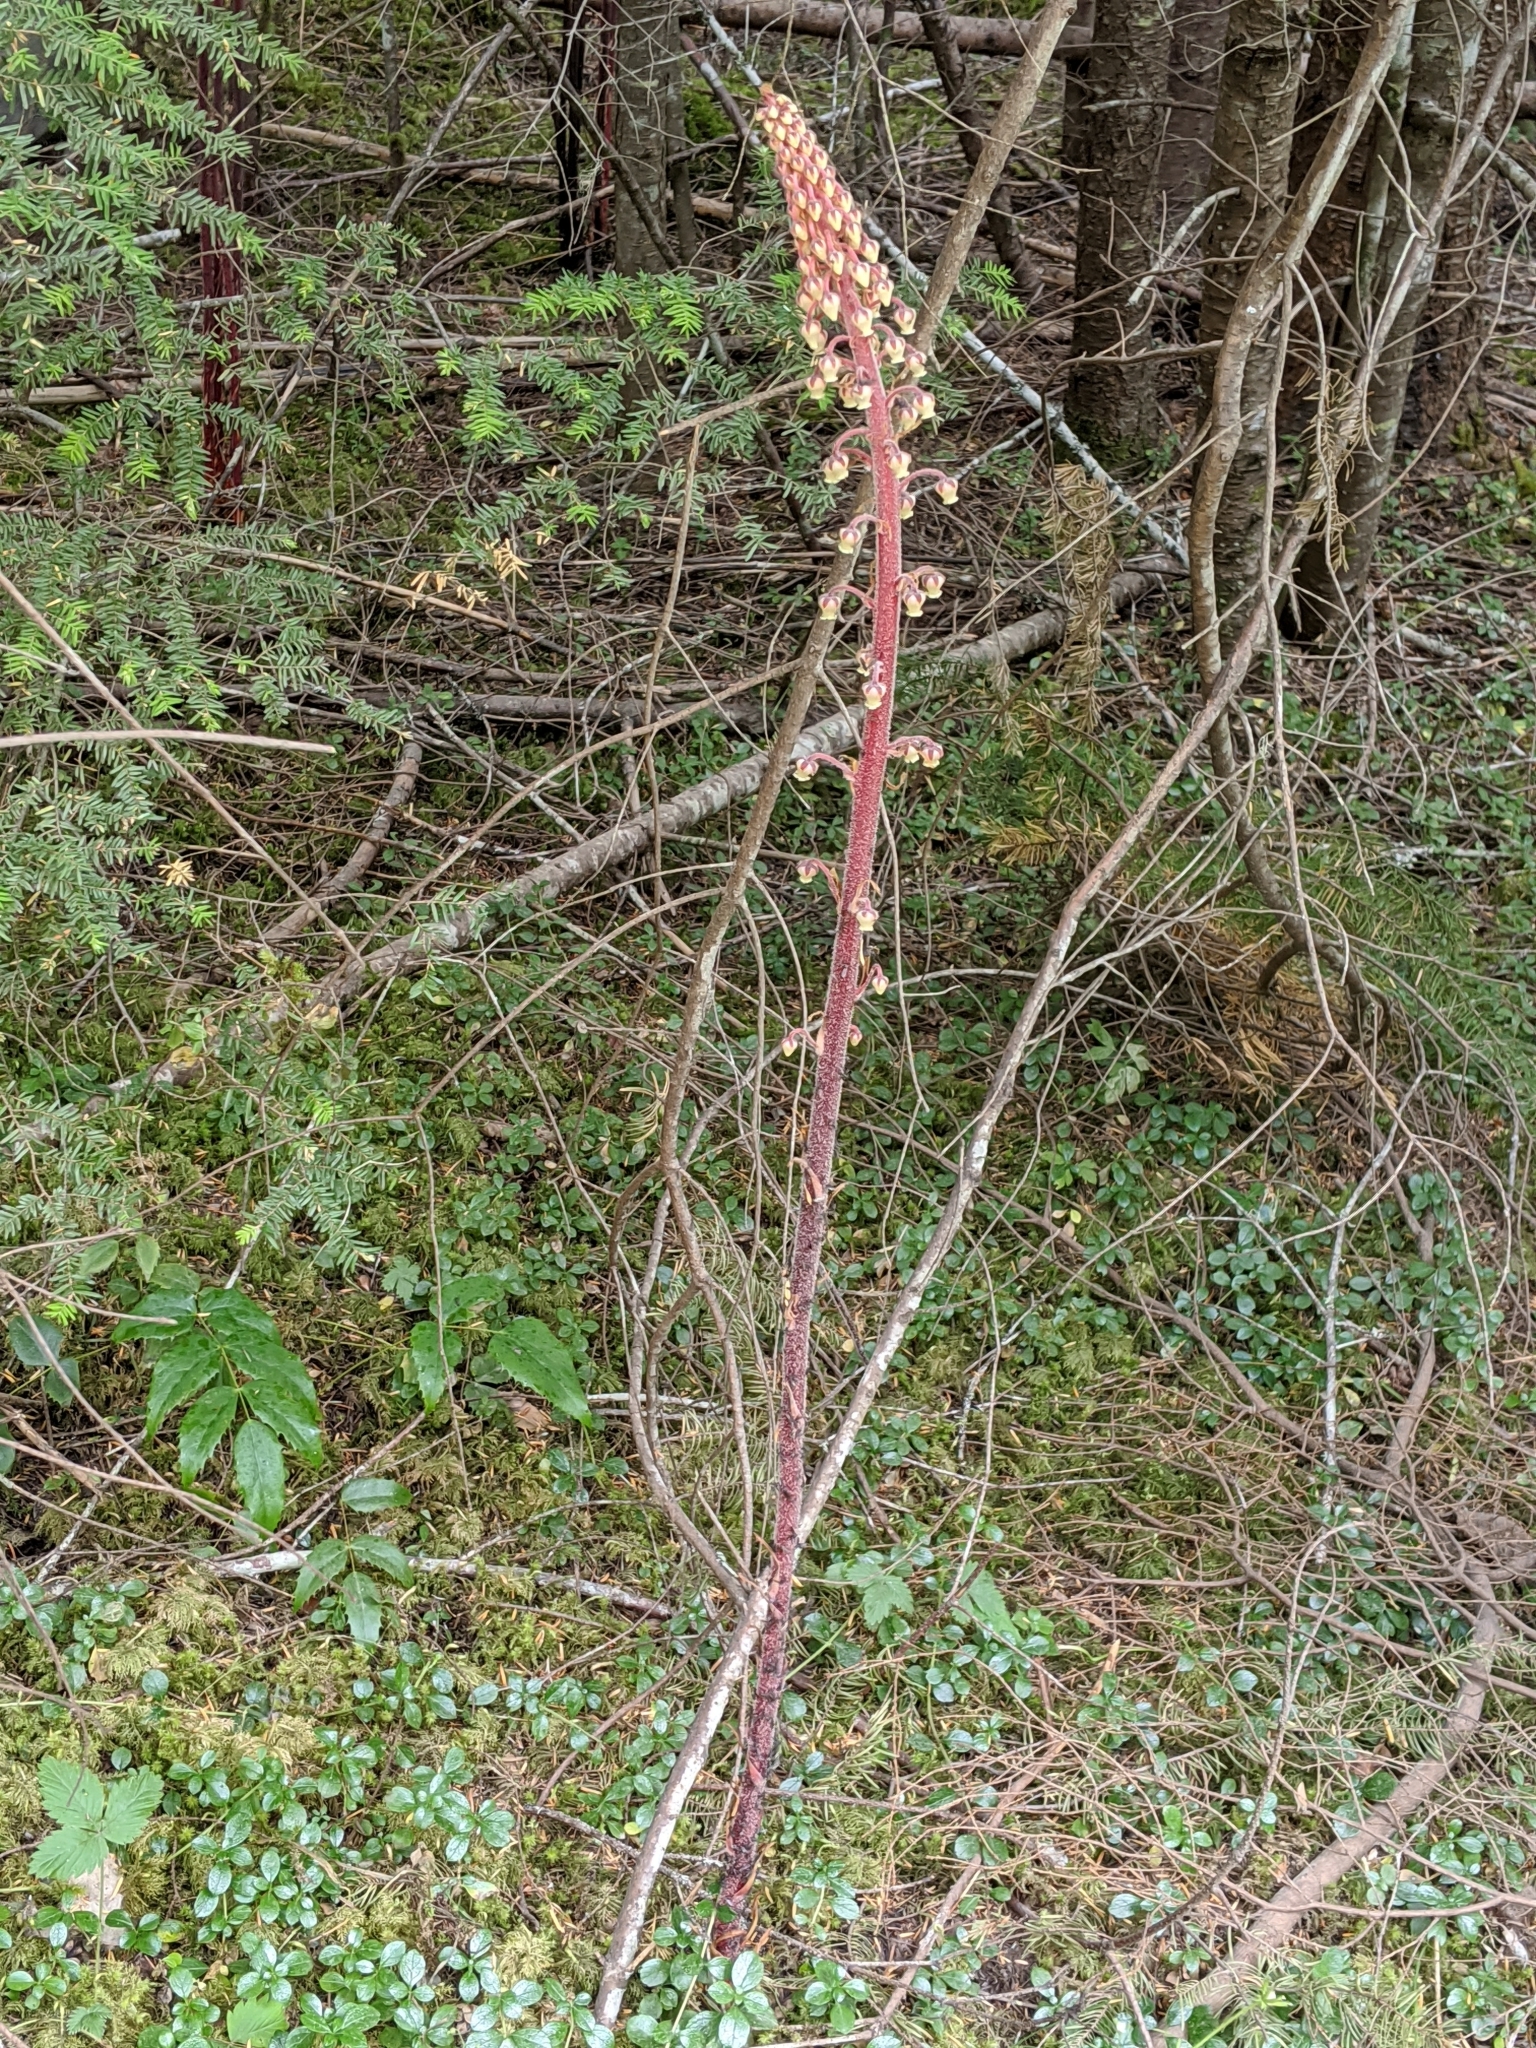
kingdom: Plantae
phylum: Tracheophyta
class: Magnoliopsida
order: Ericales
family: Ericaceae
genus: Pterospora
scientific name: Pterospora andromedea
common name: Giant bird's-nest
